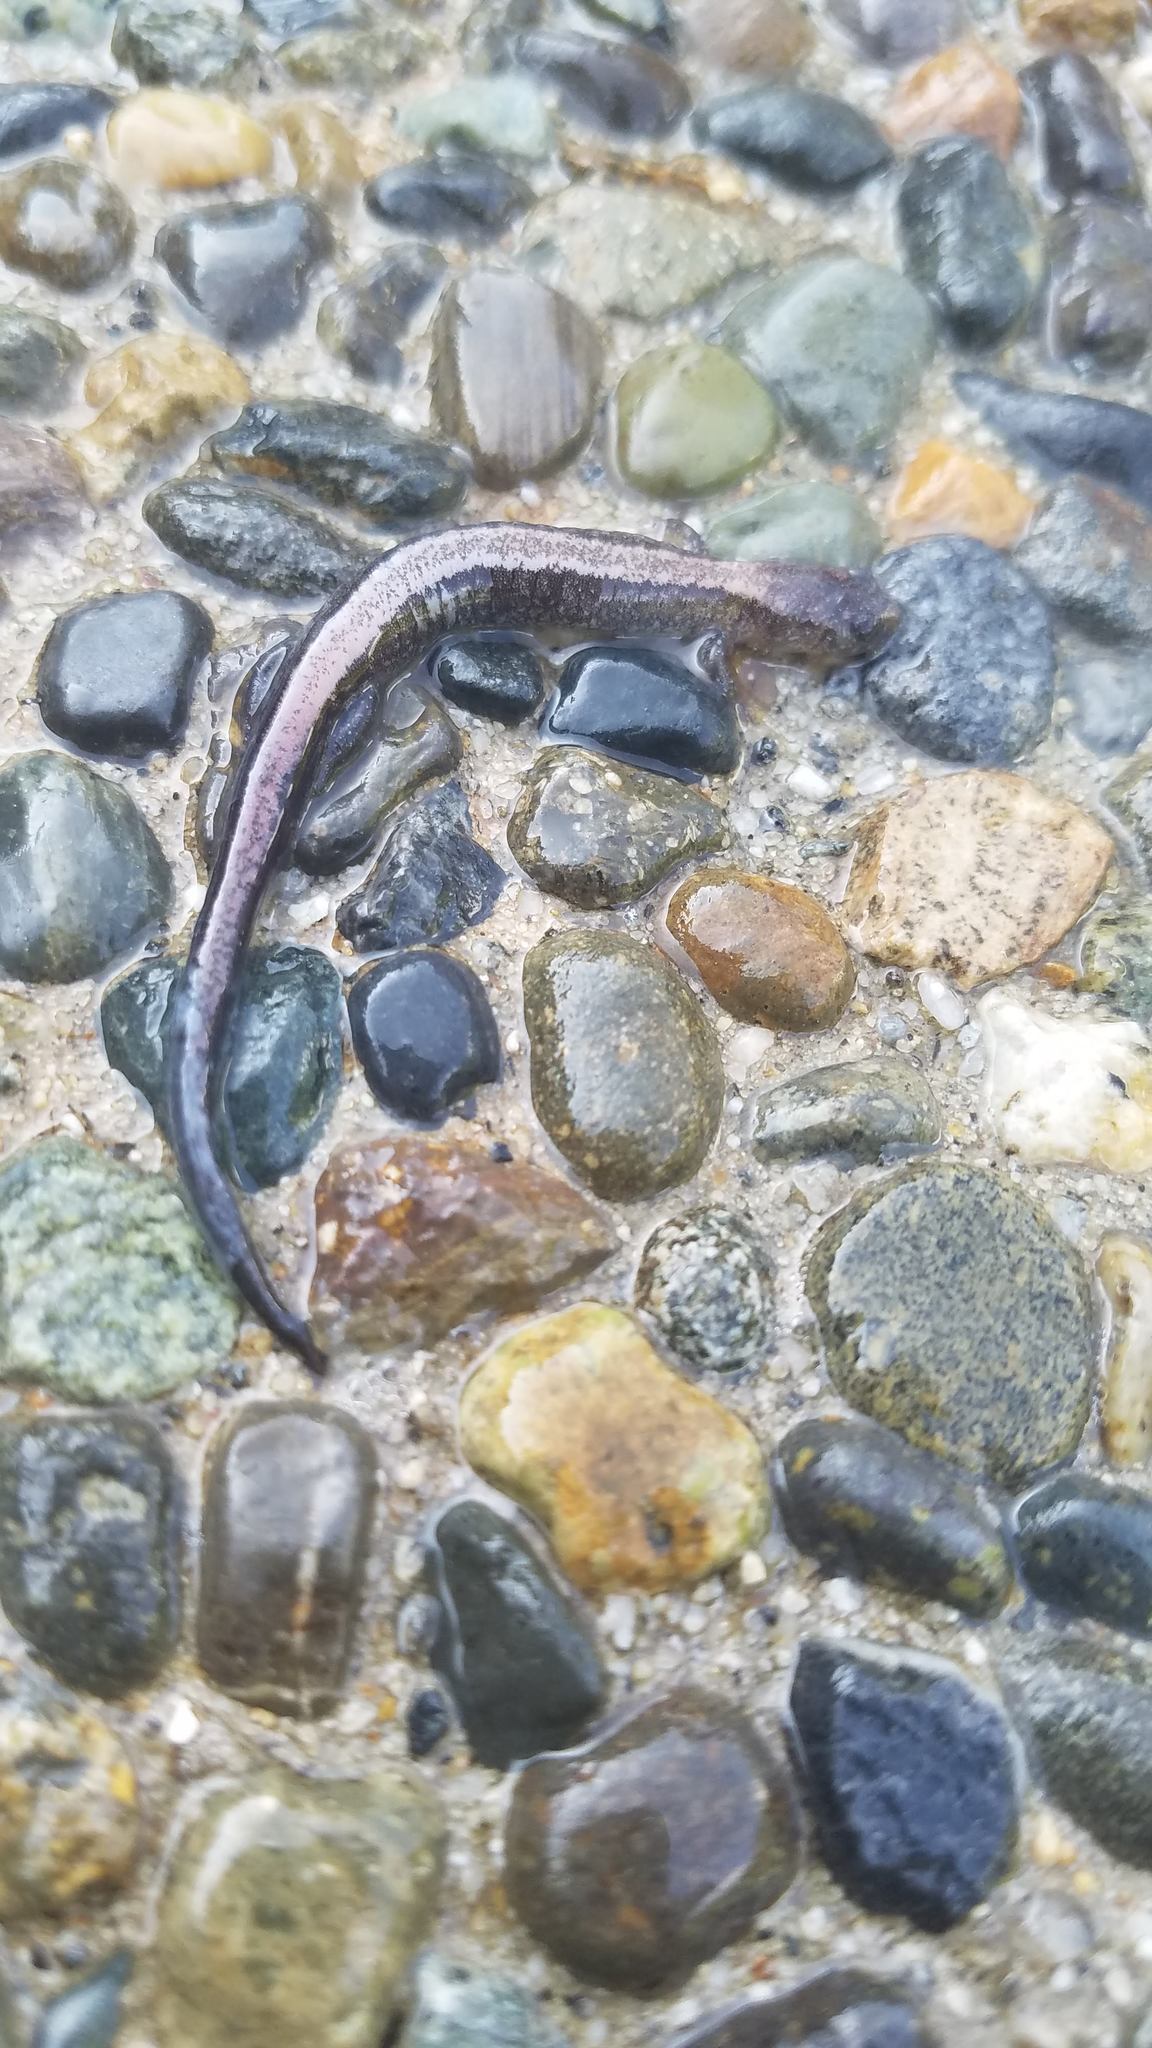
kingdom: Animalia
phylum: Chordata
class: Amphibia
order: Caudata
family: Plethodontidae
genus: Plethodon
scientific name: Plethodon cinereus
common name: Redback salamander
